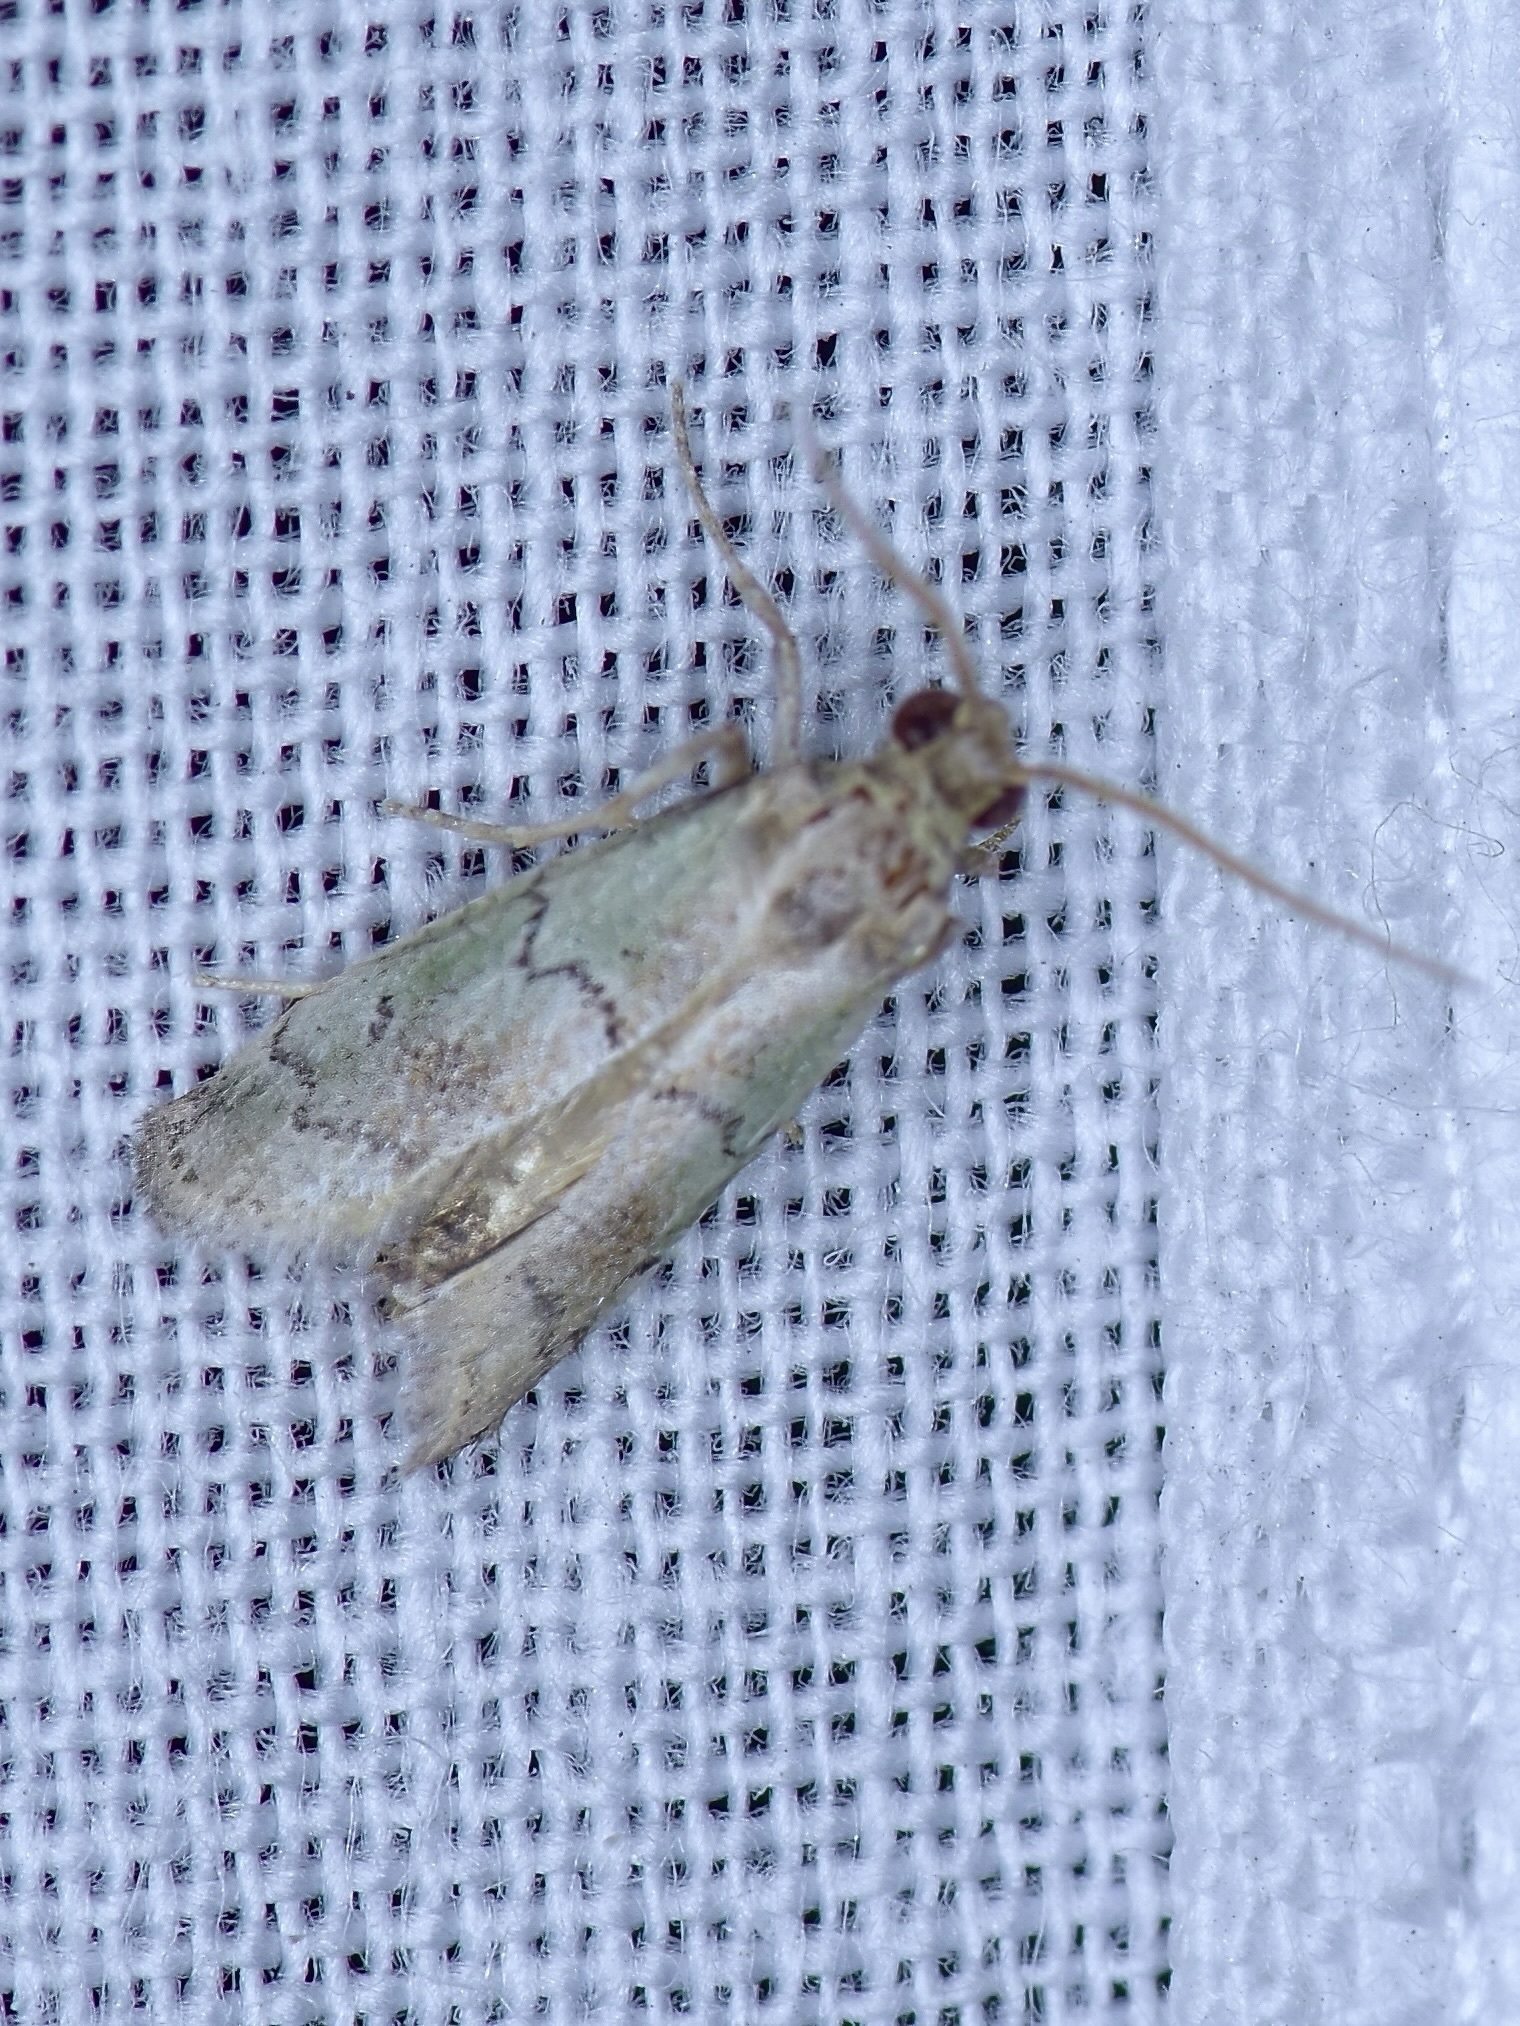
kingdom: Animalia
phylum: Arthropoda
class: Insecta
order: Lepidoptera
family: Pyralidae
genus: Cacotherapia
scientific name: Cacotherapia flexilinealis
